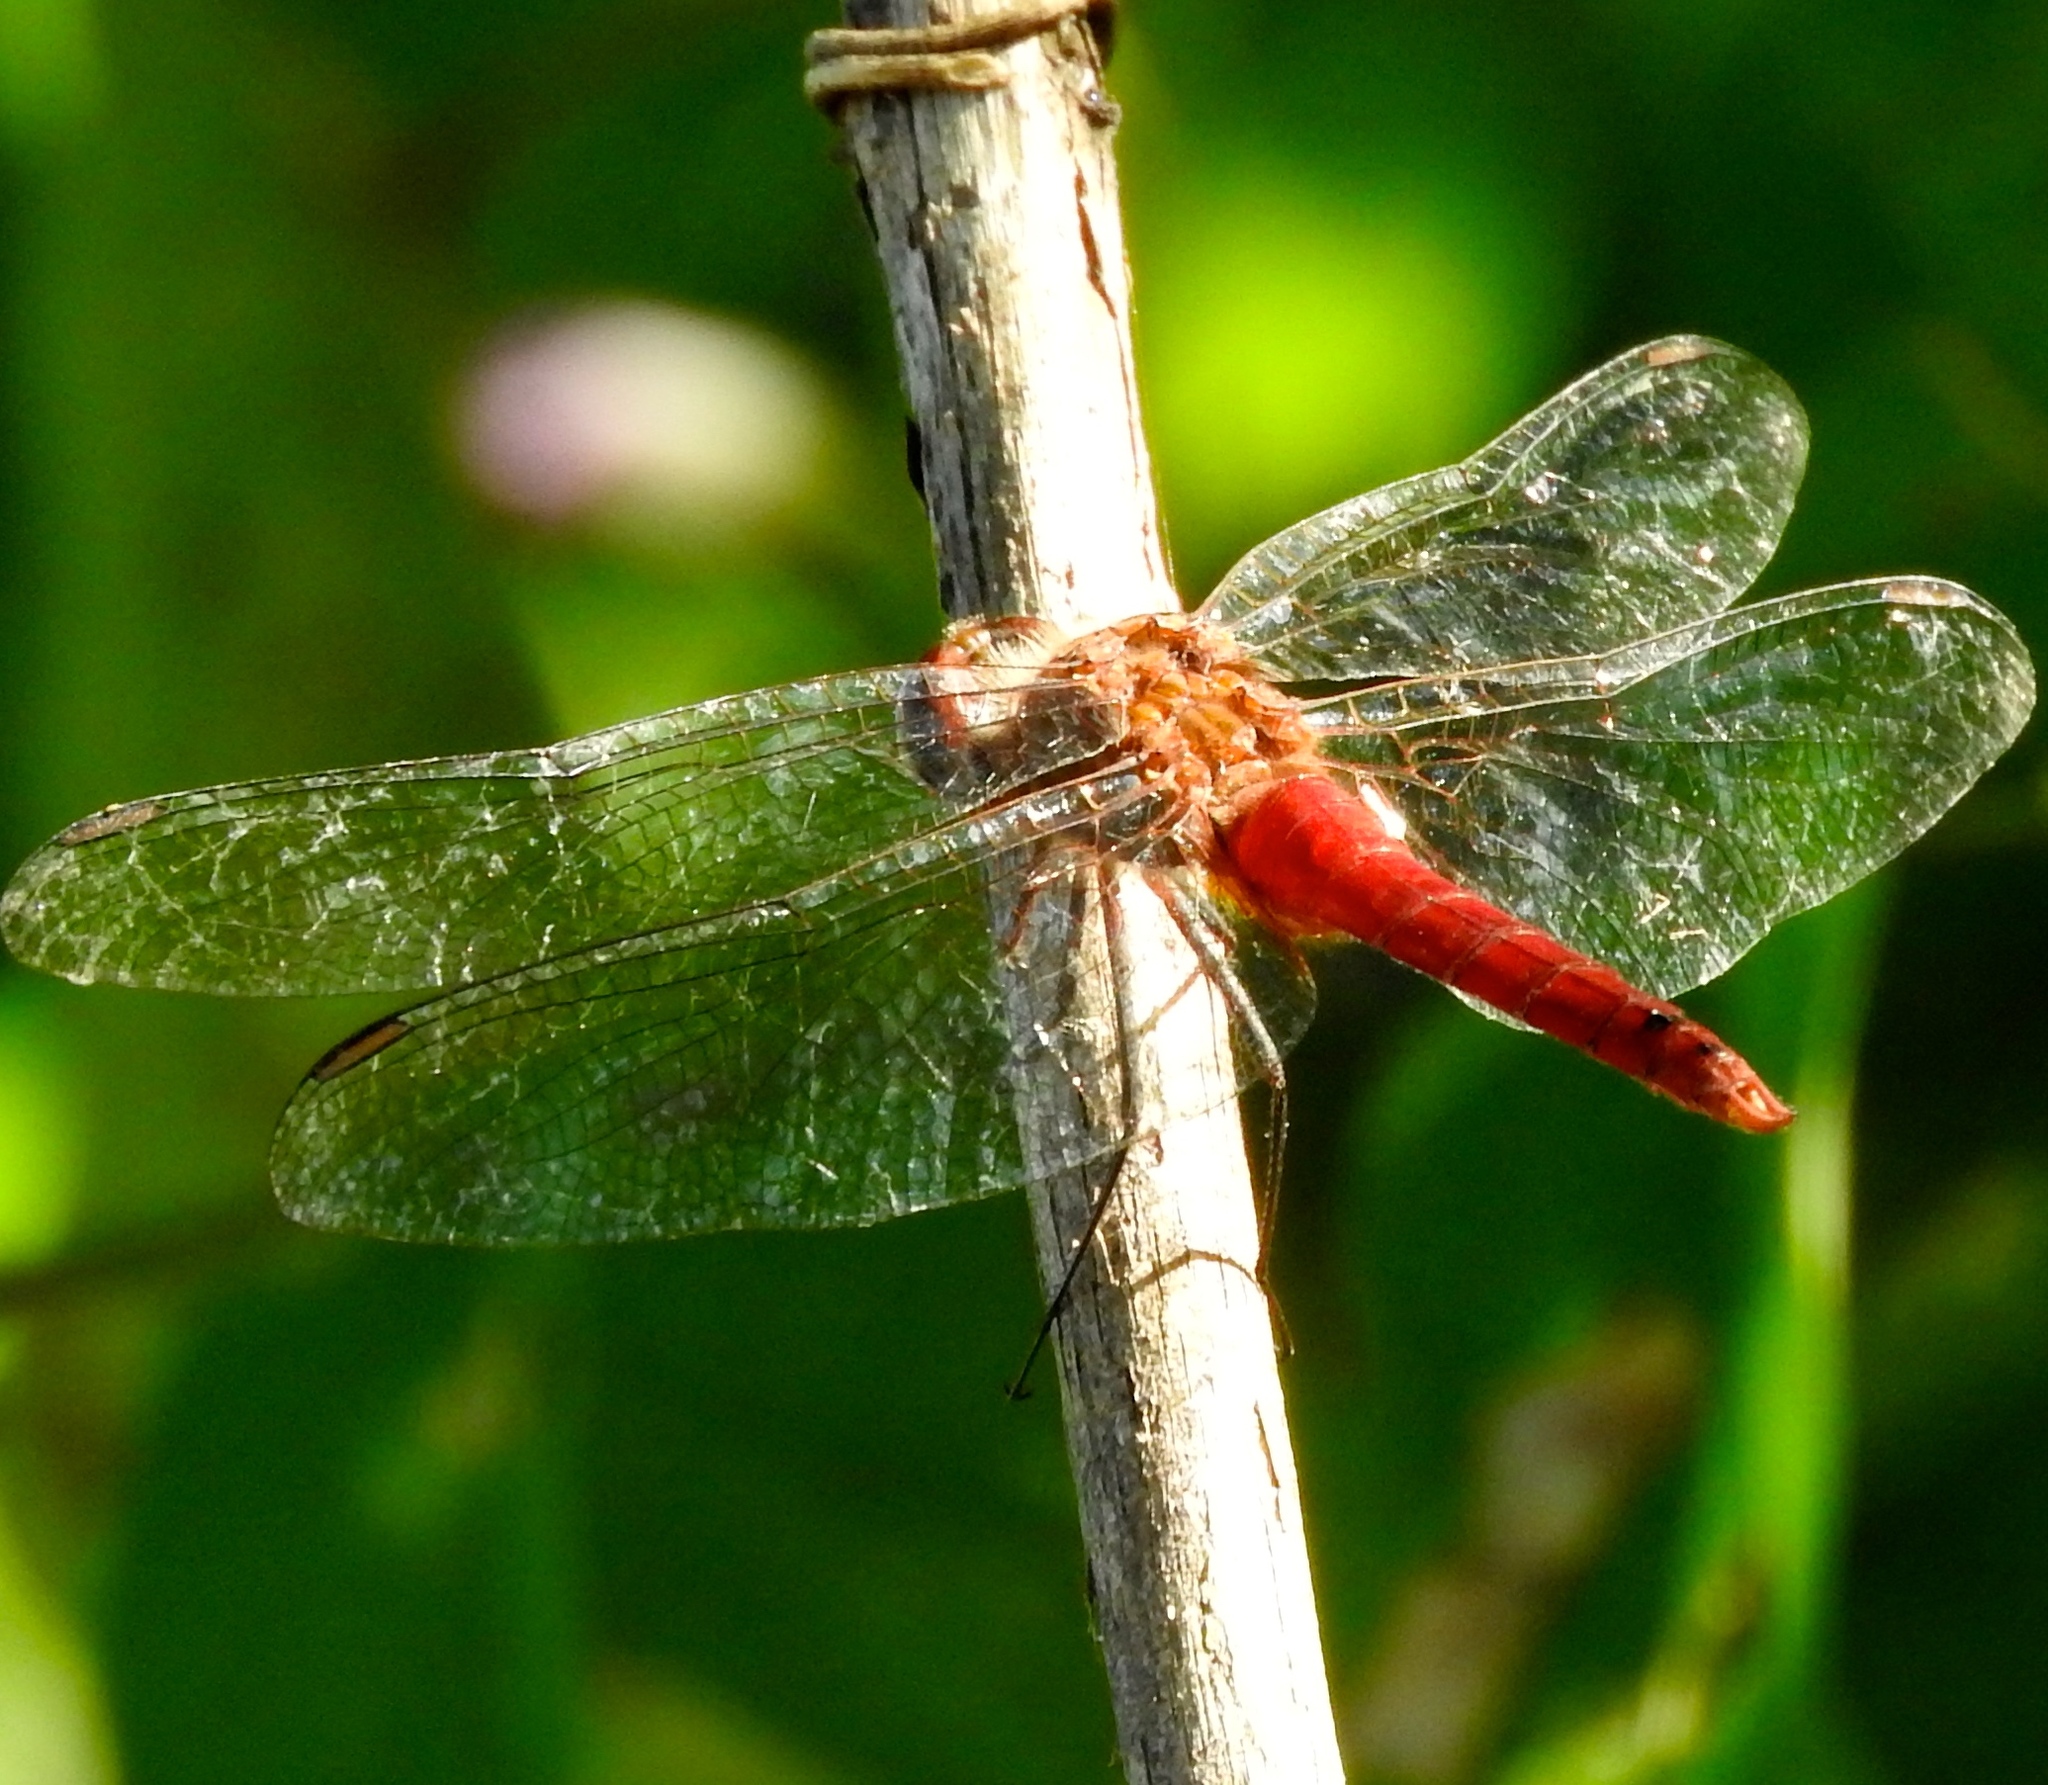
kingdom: Animalia
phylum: Arthropoda
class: Insecta
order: Odonata
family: Libellulidae
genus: Brachymesia
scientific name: Brachymesia furcata
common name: Red-taled pennant
